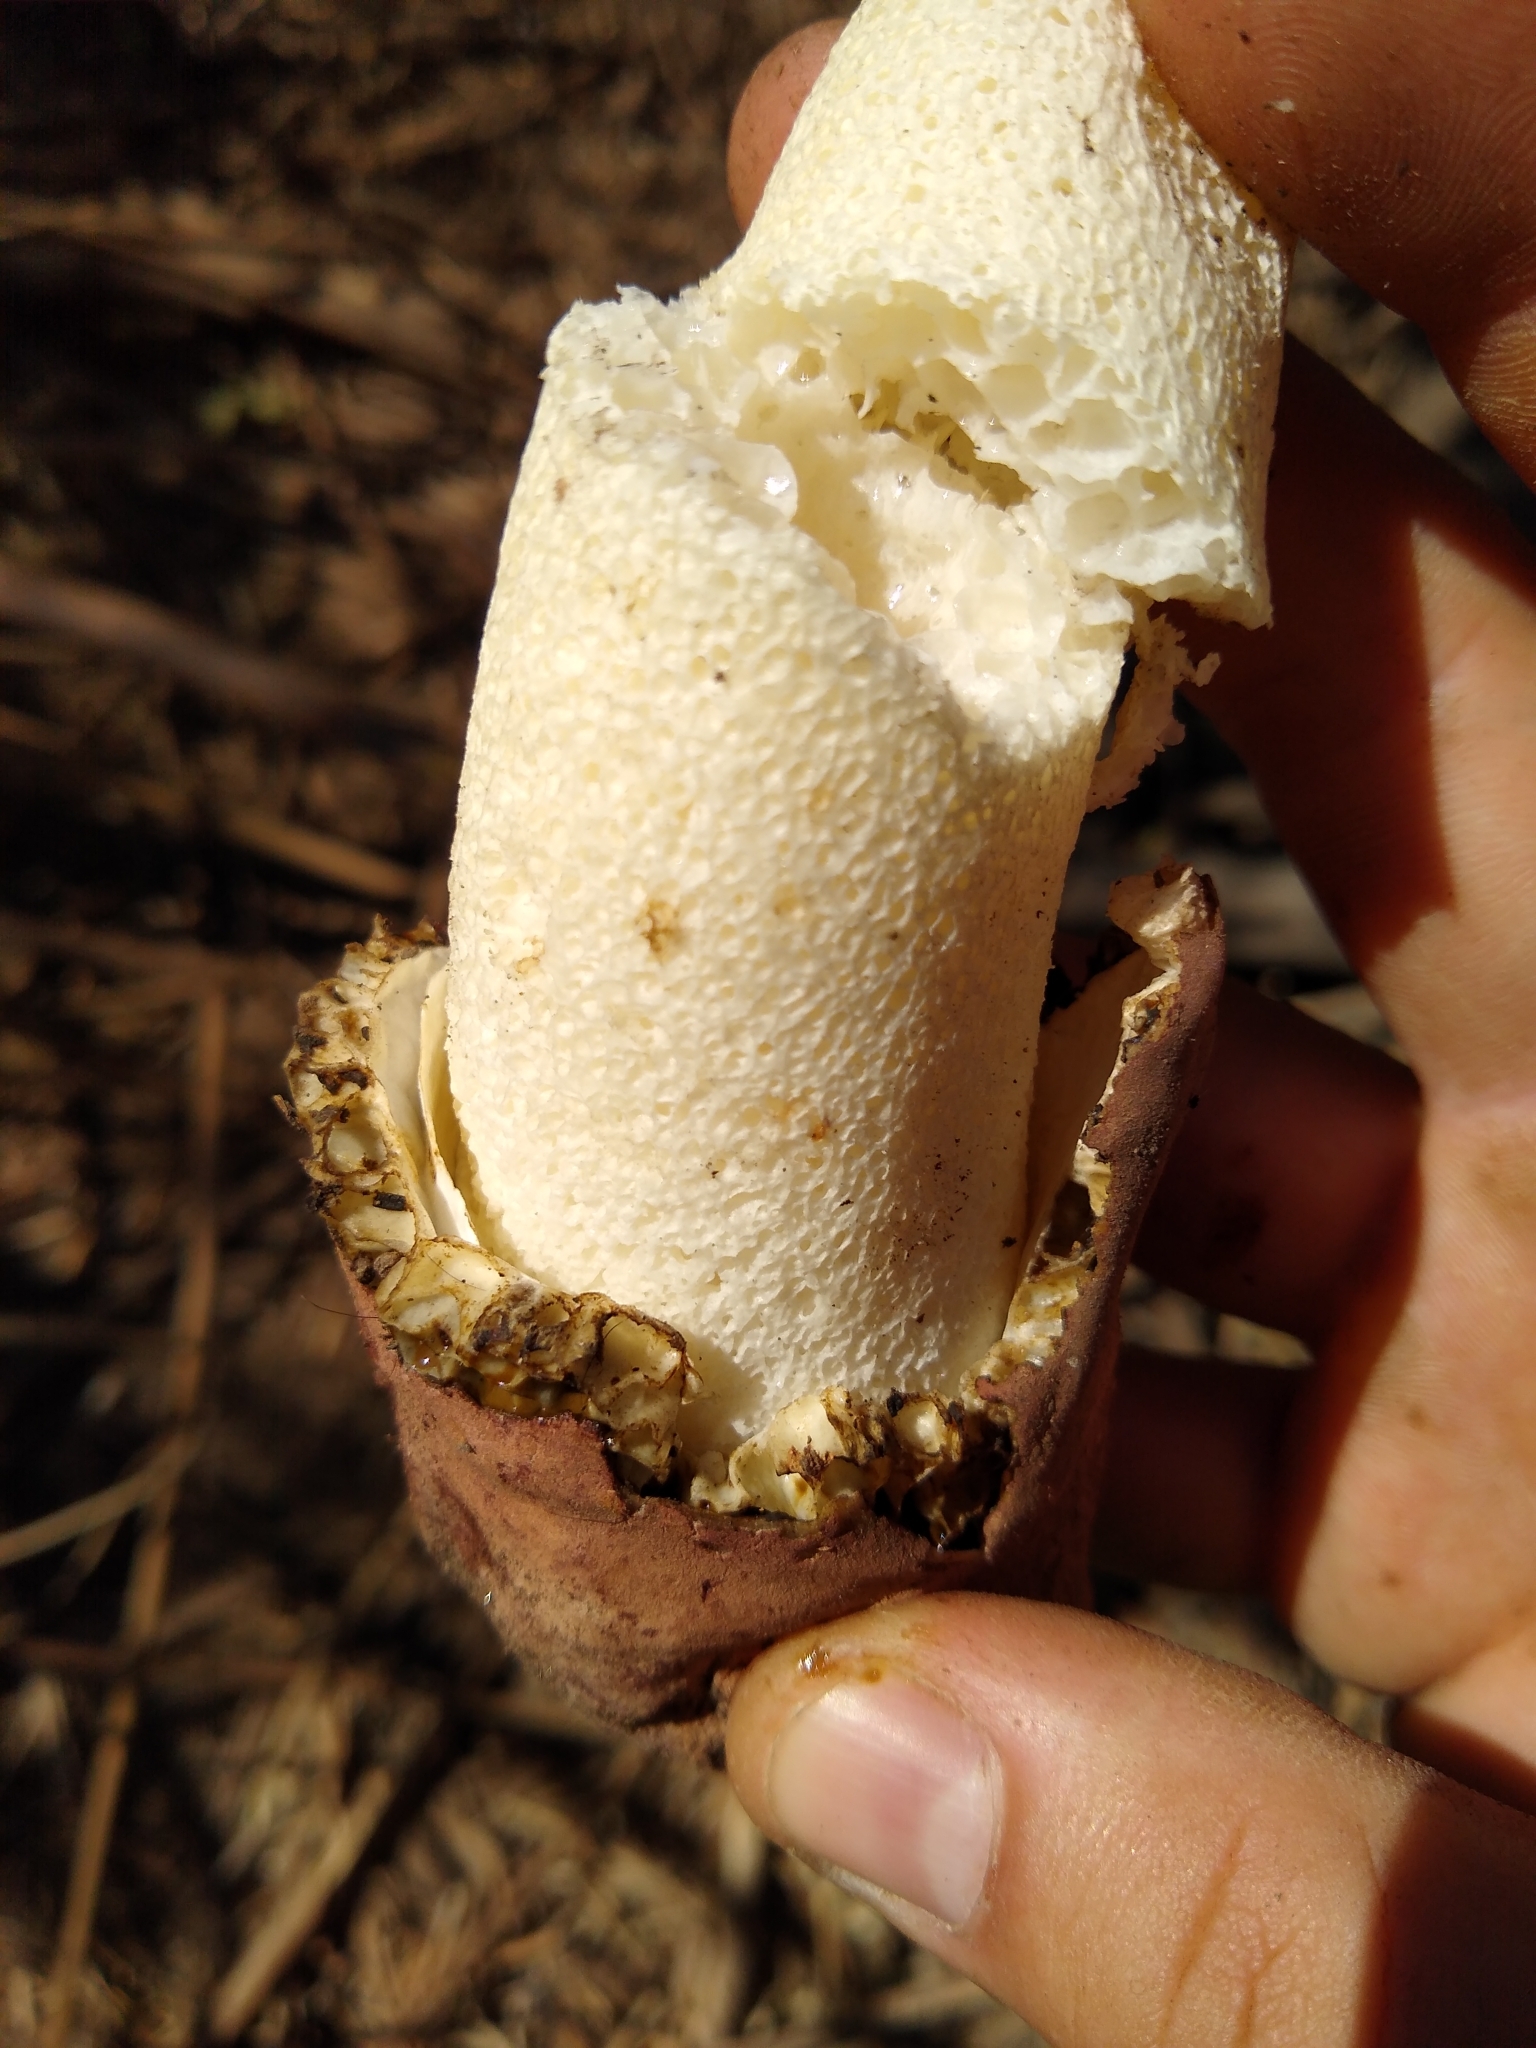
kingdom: Fungi
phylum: Basidiomycota
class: Agaricomycetes
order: Phallales
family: Phallaceae
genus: Phallus
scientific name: Phallus hadriani
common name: Sand stinkhorn
